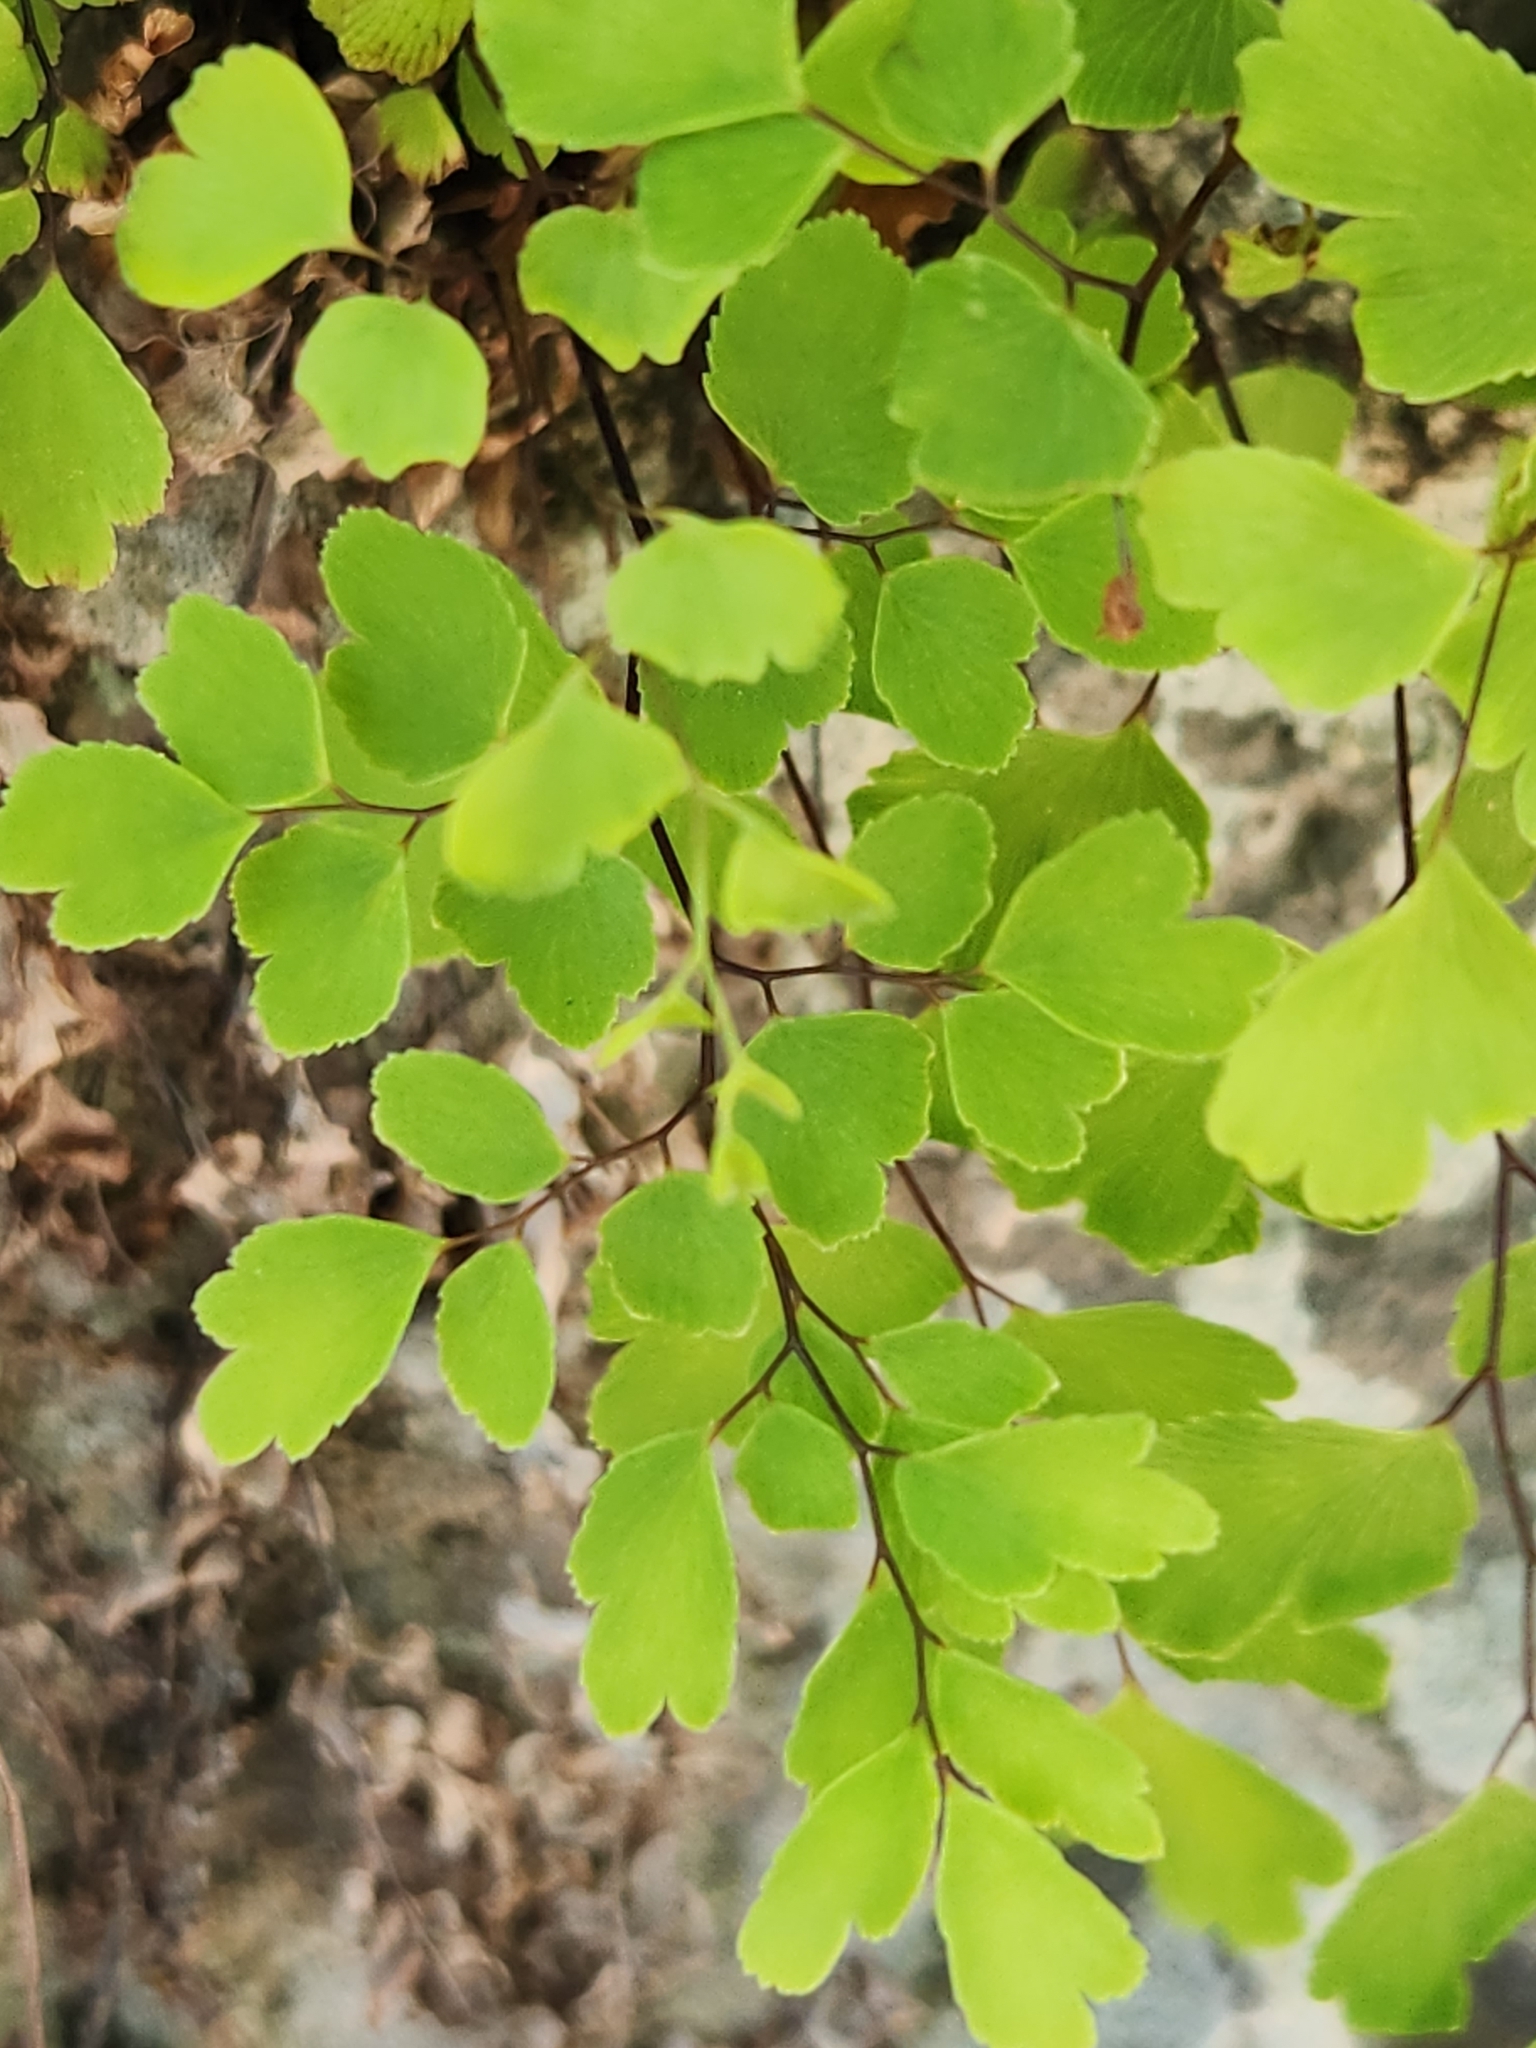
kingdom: Plantae
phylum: Tracheophyta
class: Polypodiopsida
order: Polypodiales
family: Pteridaceae
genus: Adiantum
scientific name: Adiantum capillus-veneris
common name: Maidenhair fern
